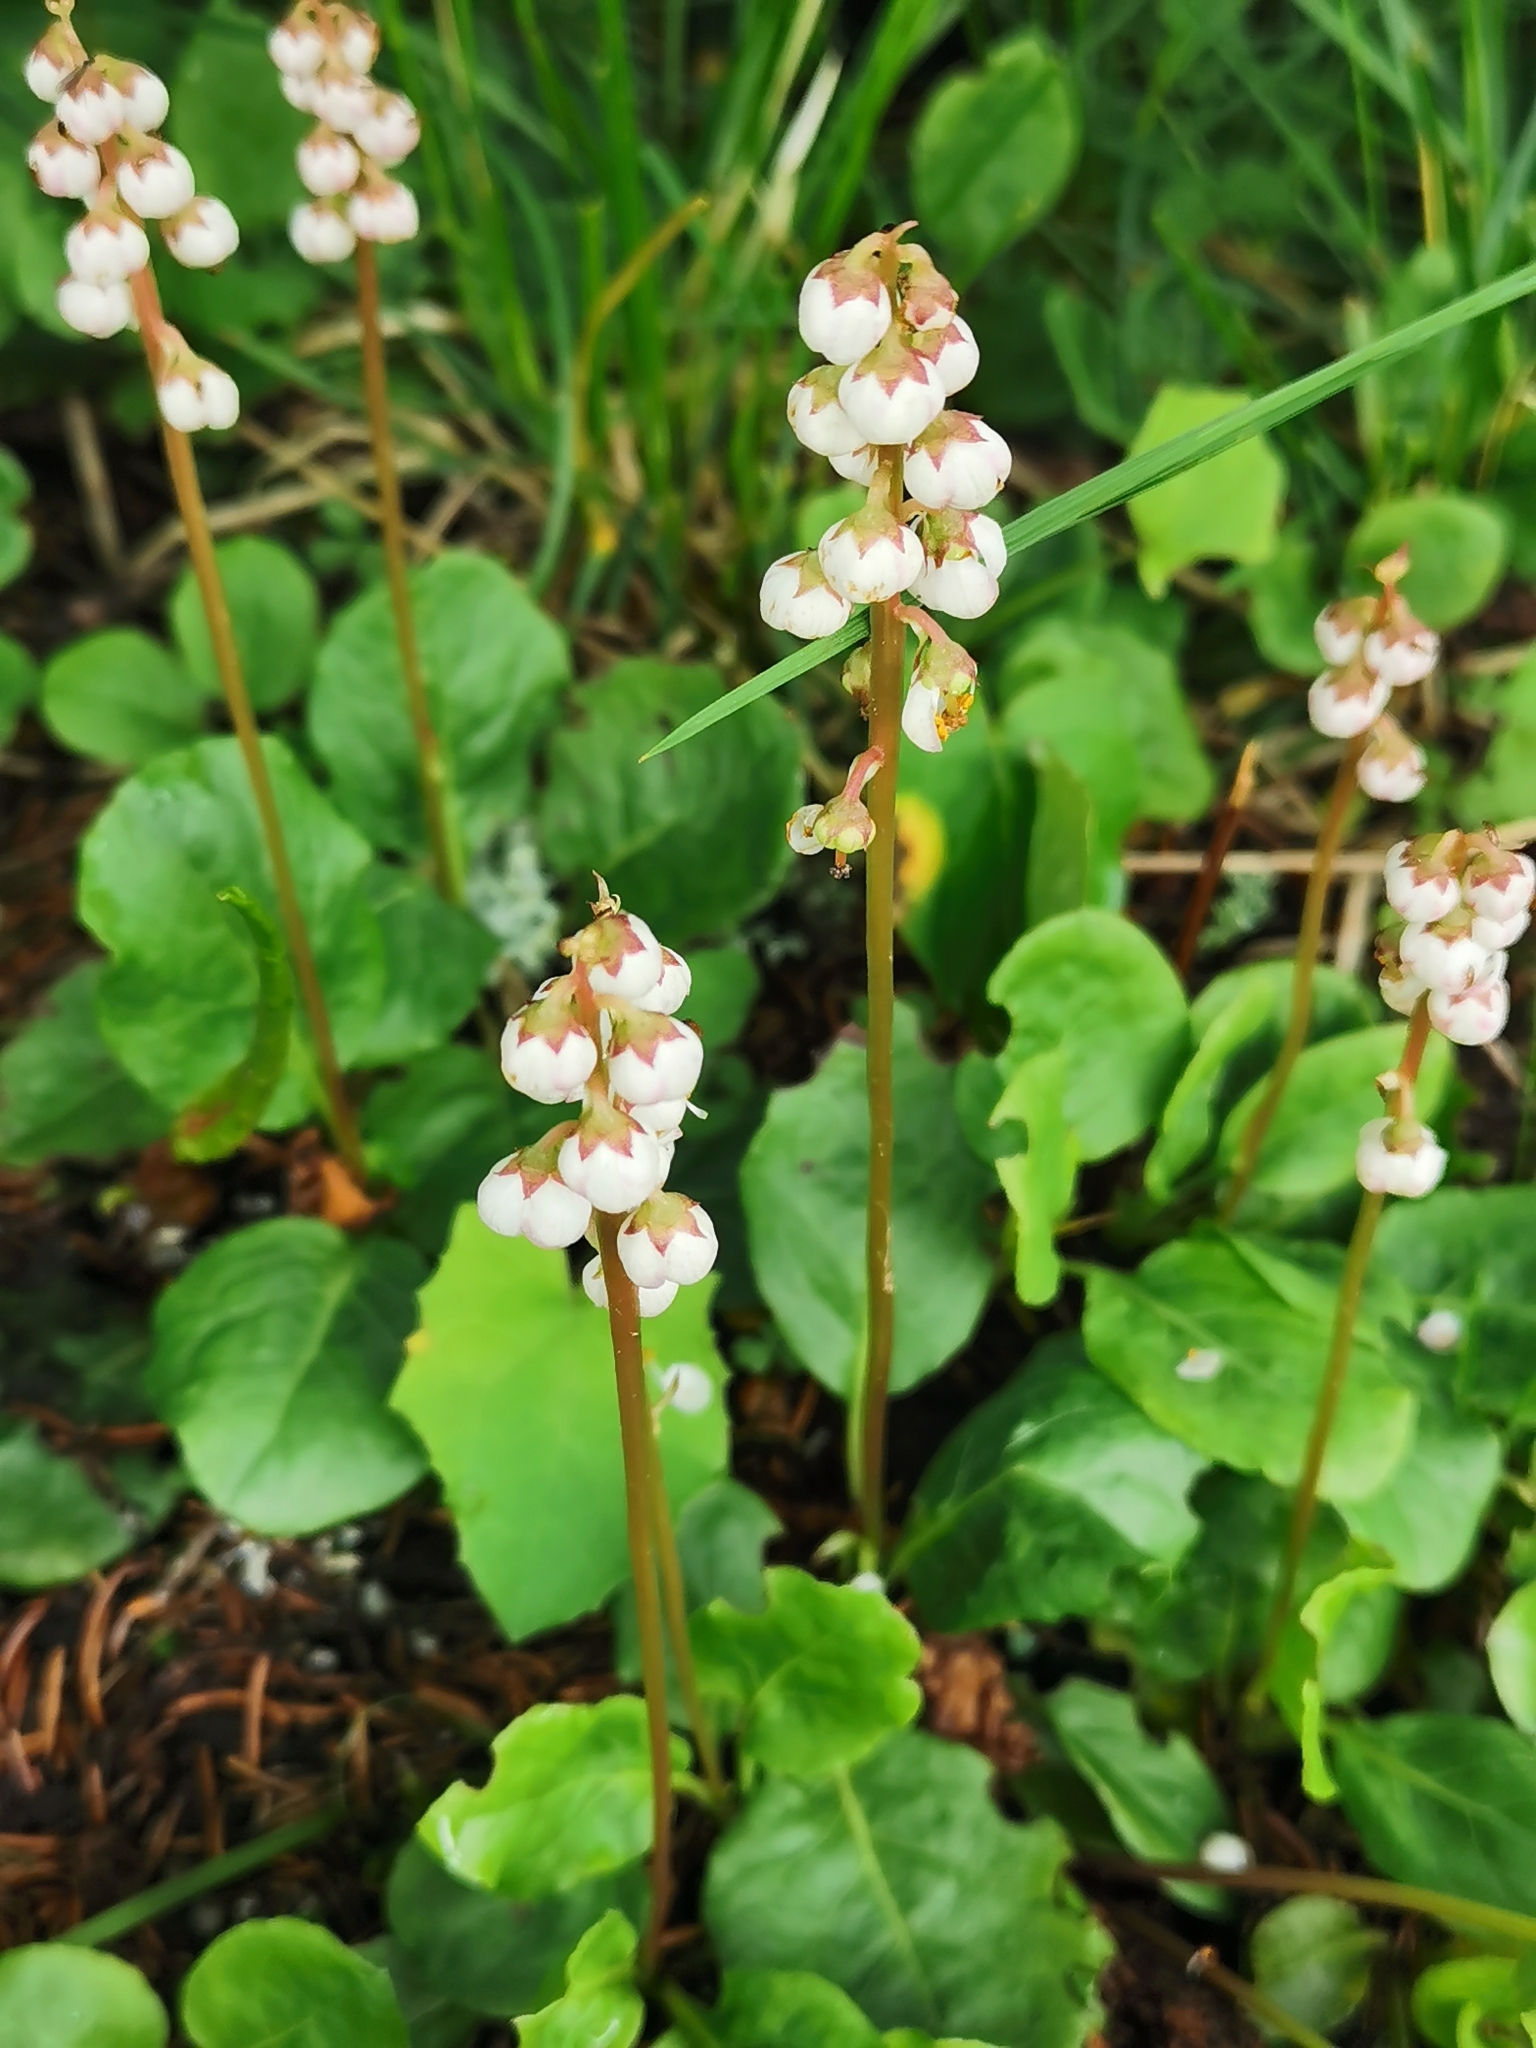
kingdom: Plantae
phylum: Tracheophyta
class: Magnoliopsida
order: Ericales
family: Ericaceae
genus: Pyrola
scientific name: Pyrola minor
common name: Common wintergreen
